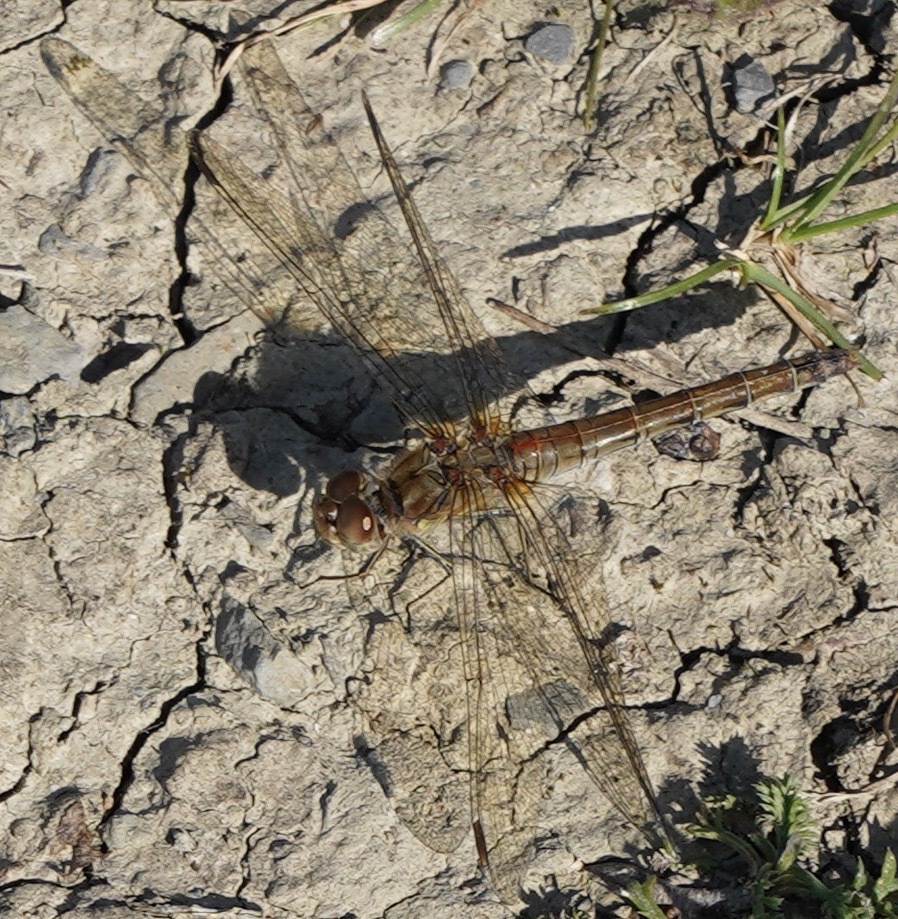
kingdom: Animalia
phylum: Arthropoda
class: Insecta
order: Odonata
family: Libellulidae
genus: Sympetrum
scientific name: Sympetrum striolatum
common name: Common darter
